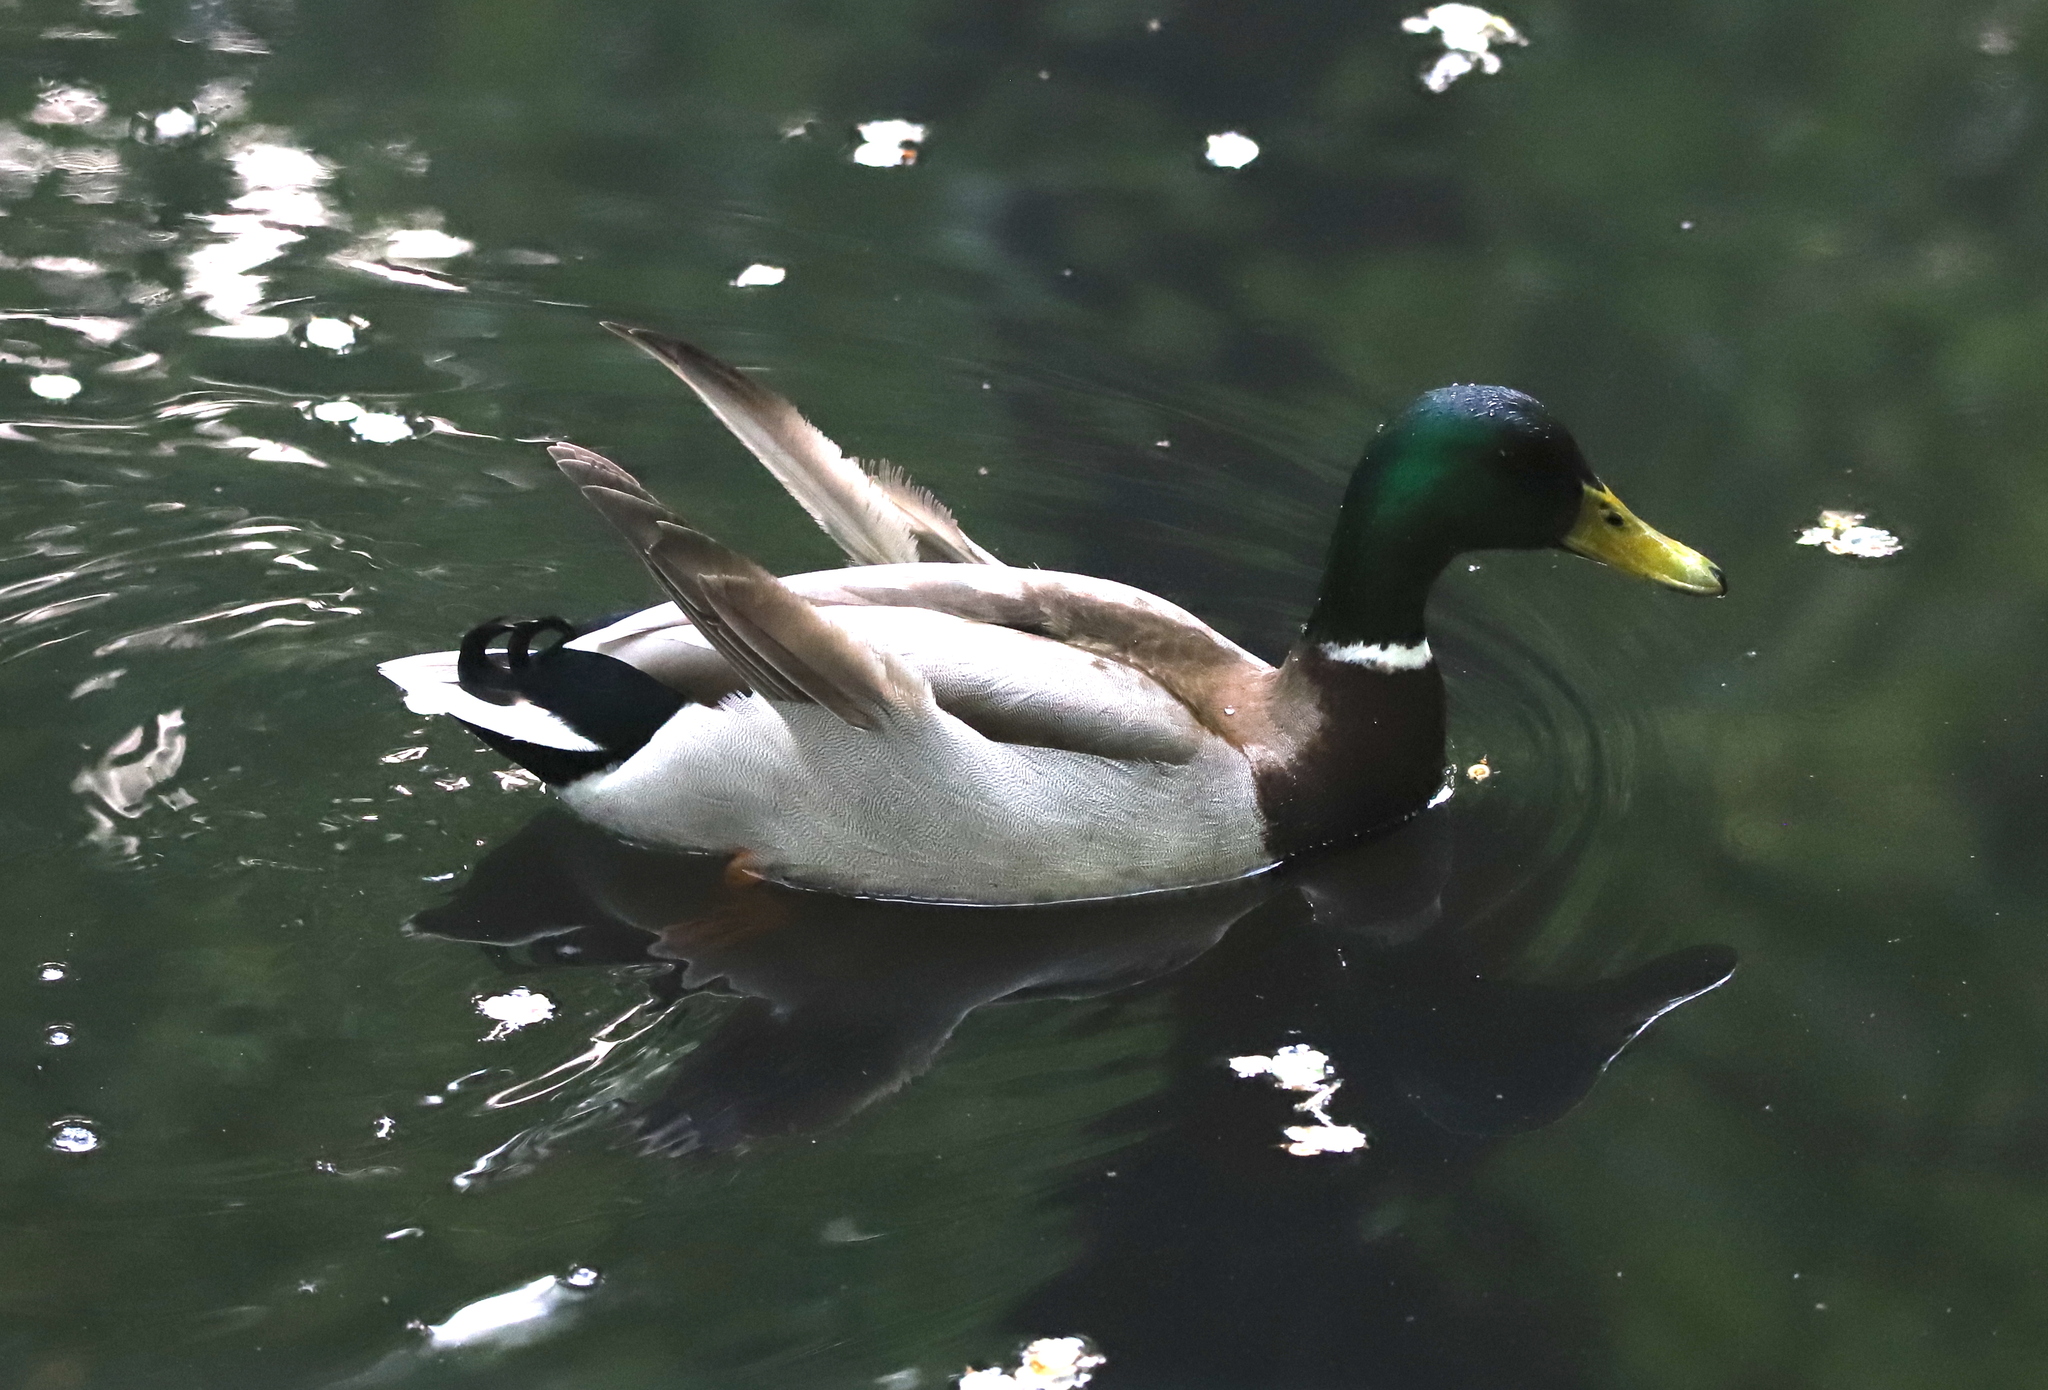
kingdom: Animalia
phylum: Chordata
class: Aves
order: Anseriformes
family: Anatidae
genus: Anas
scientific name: Anas platyrhynchos
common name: Mallard
